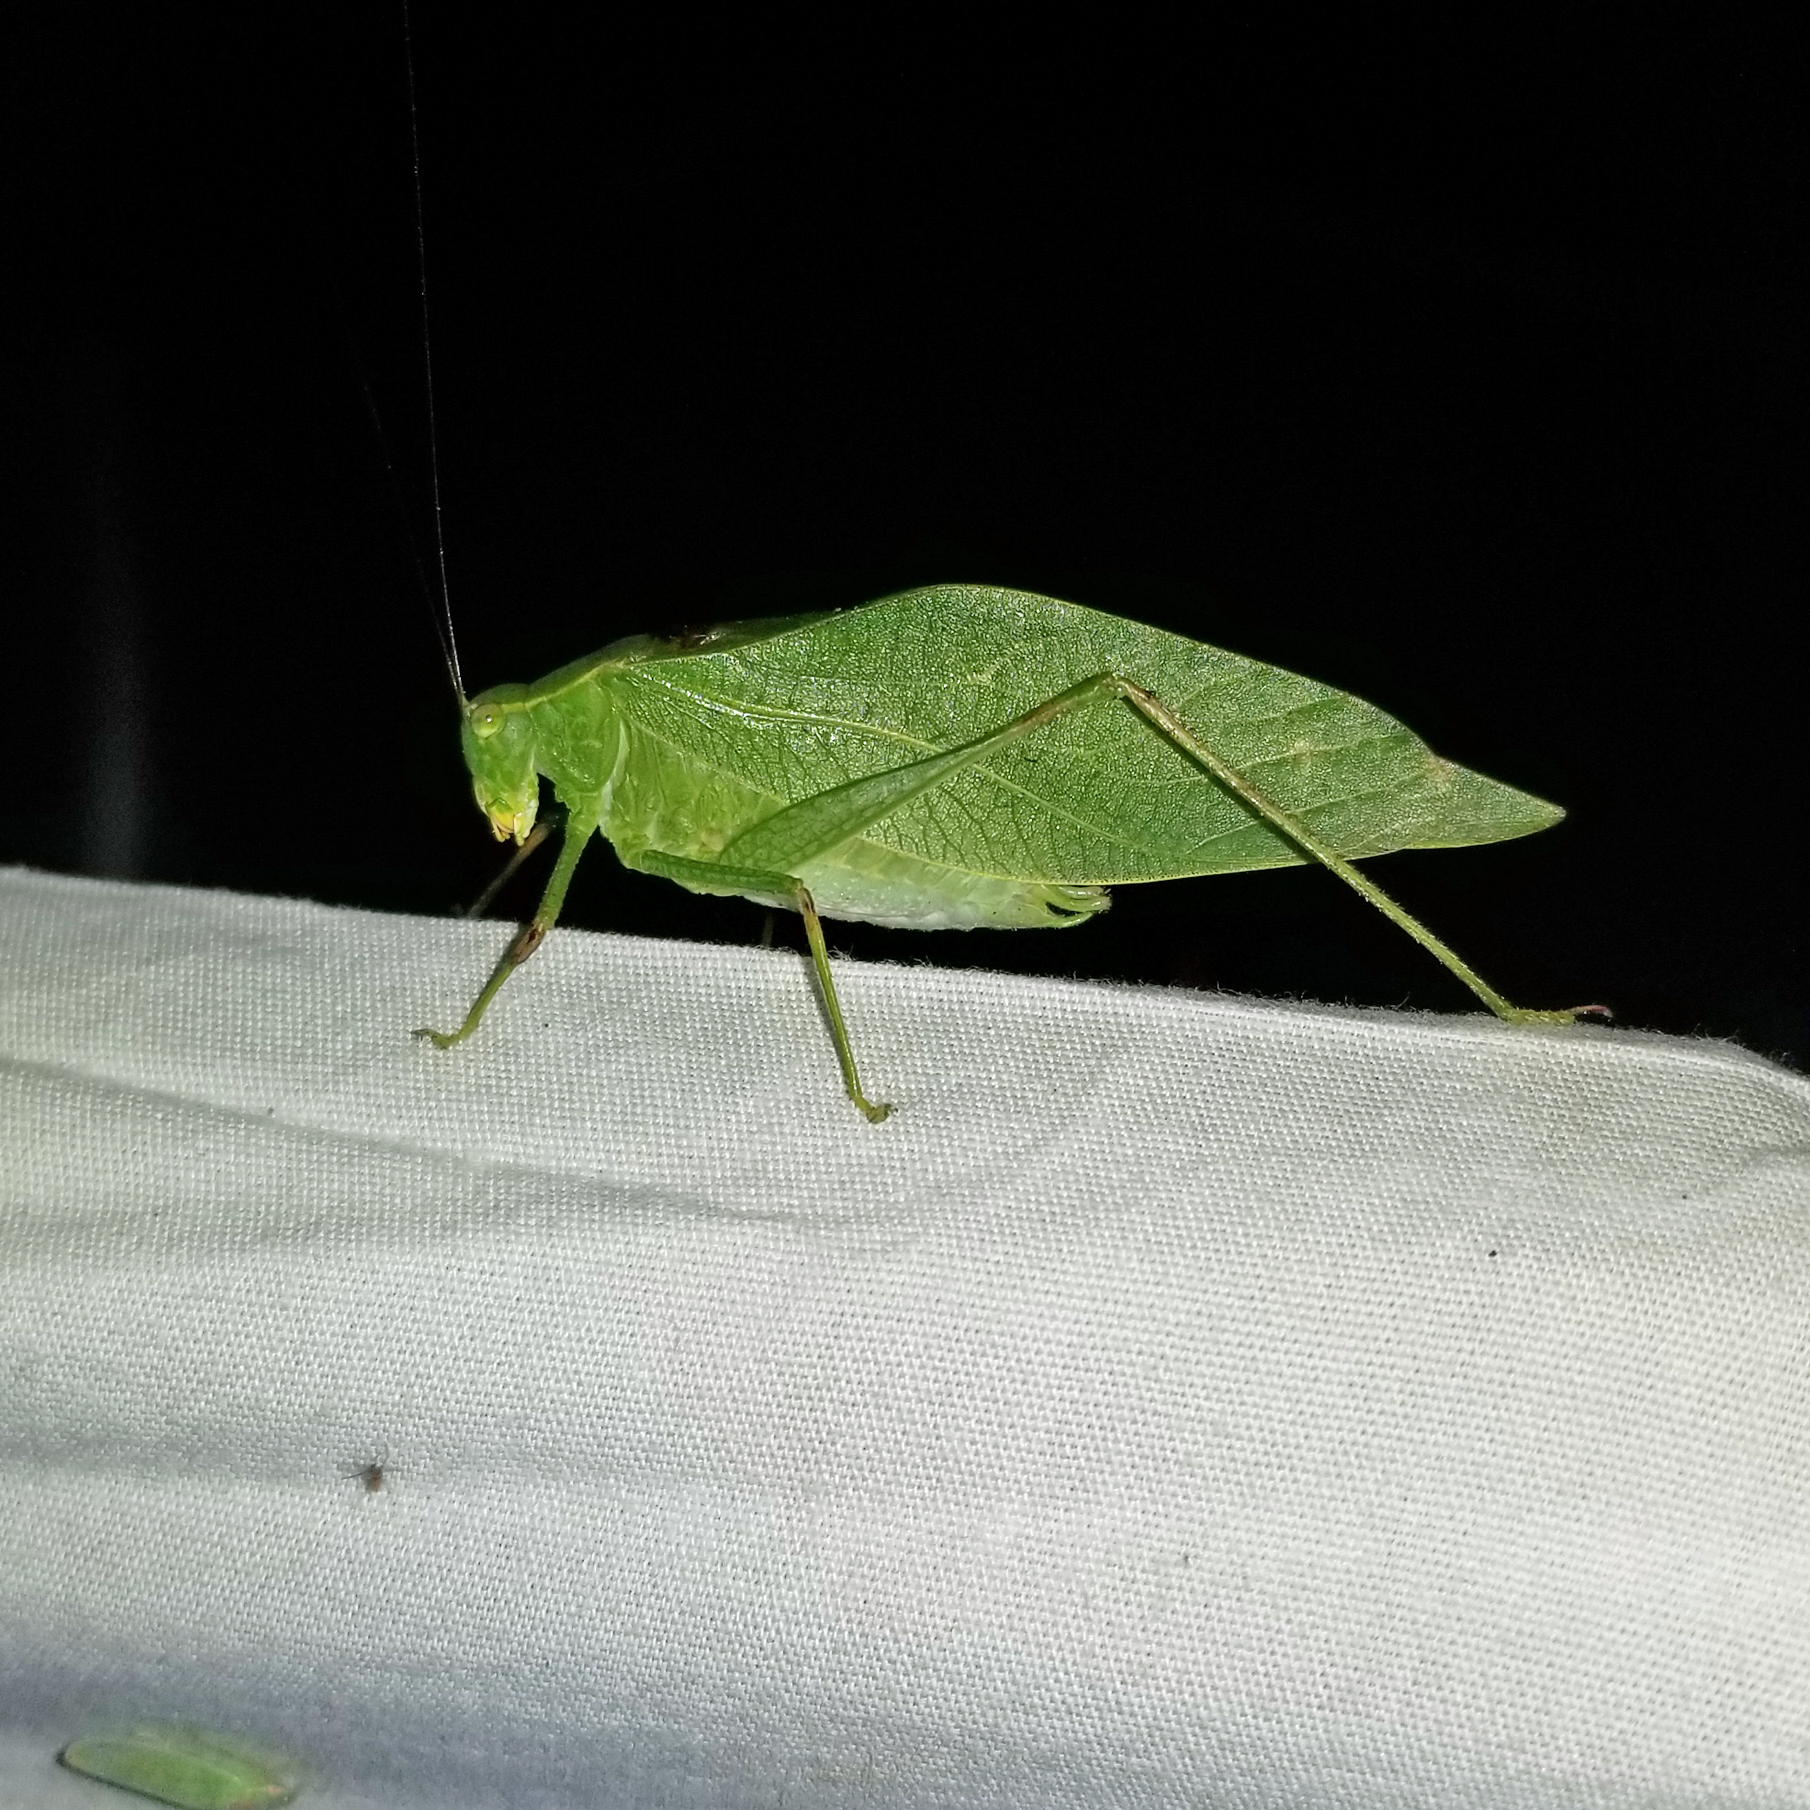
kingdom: Animalia
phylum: Arthropoda
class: Insecta
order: Orthoptera
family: Tettigoniidae
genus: Microcentrum
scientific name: Microcentrum retinerve
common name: Angular-winged katydid
